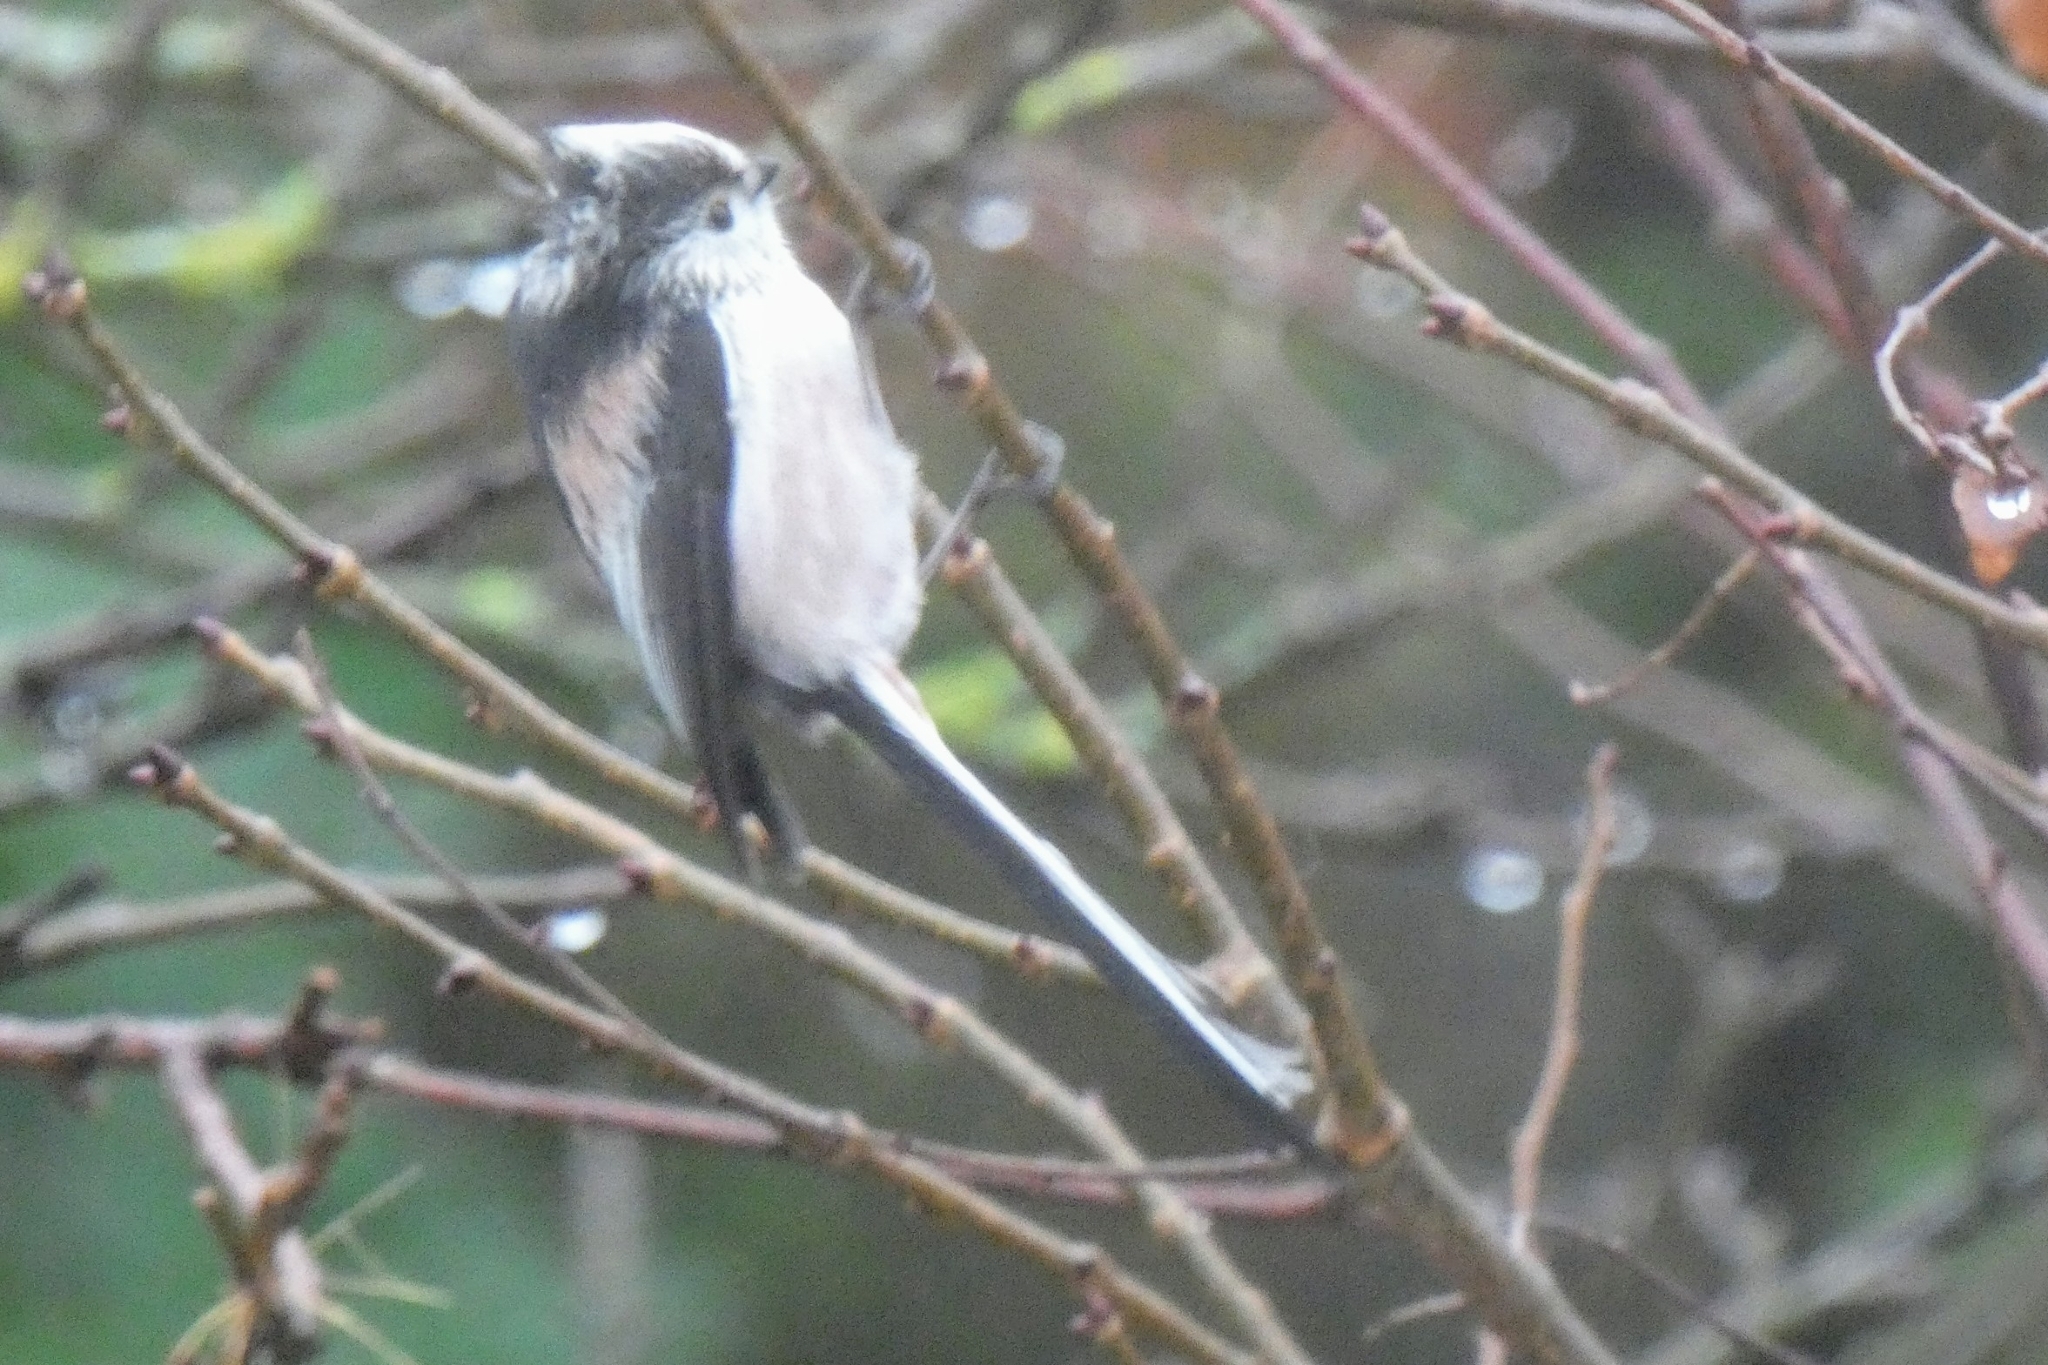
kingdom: Animalia
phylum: Chordata
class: Aves
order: Passeriformes
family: Aegithalidae
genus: Aegithalos
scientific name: Aegithalos caudatus
